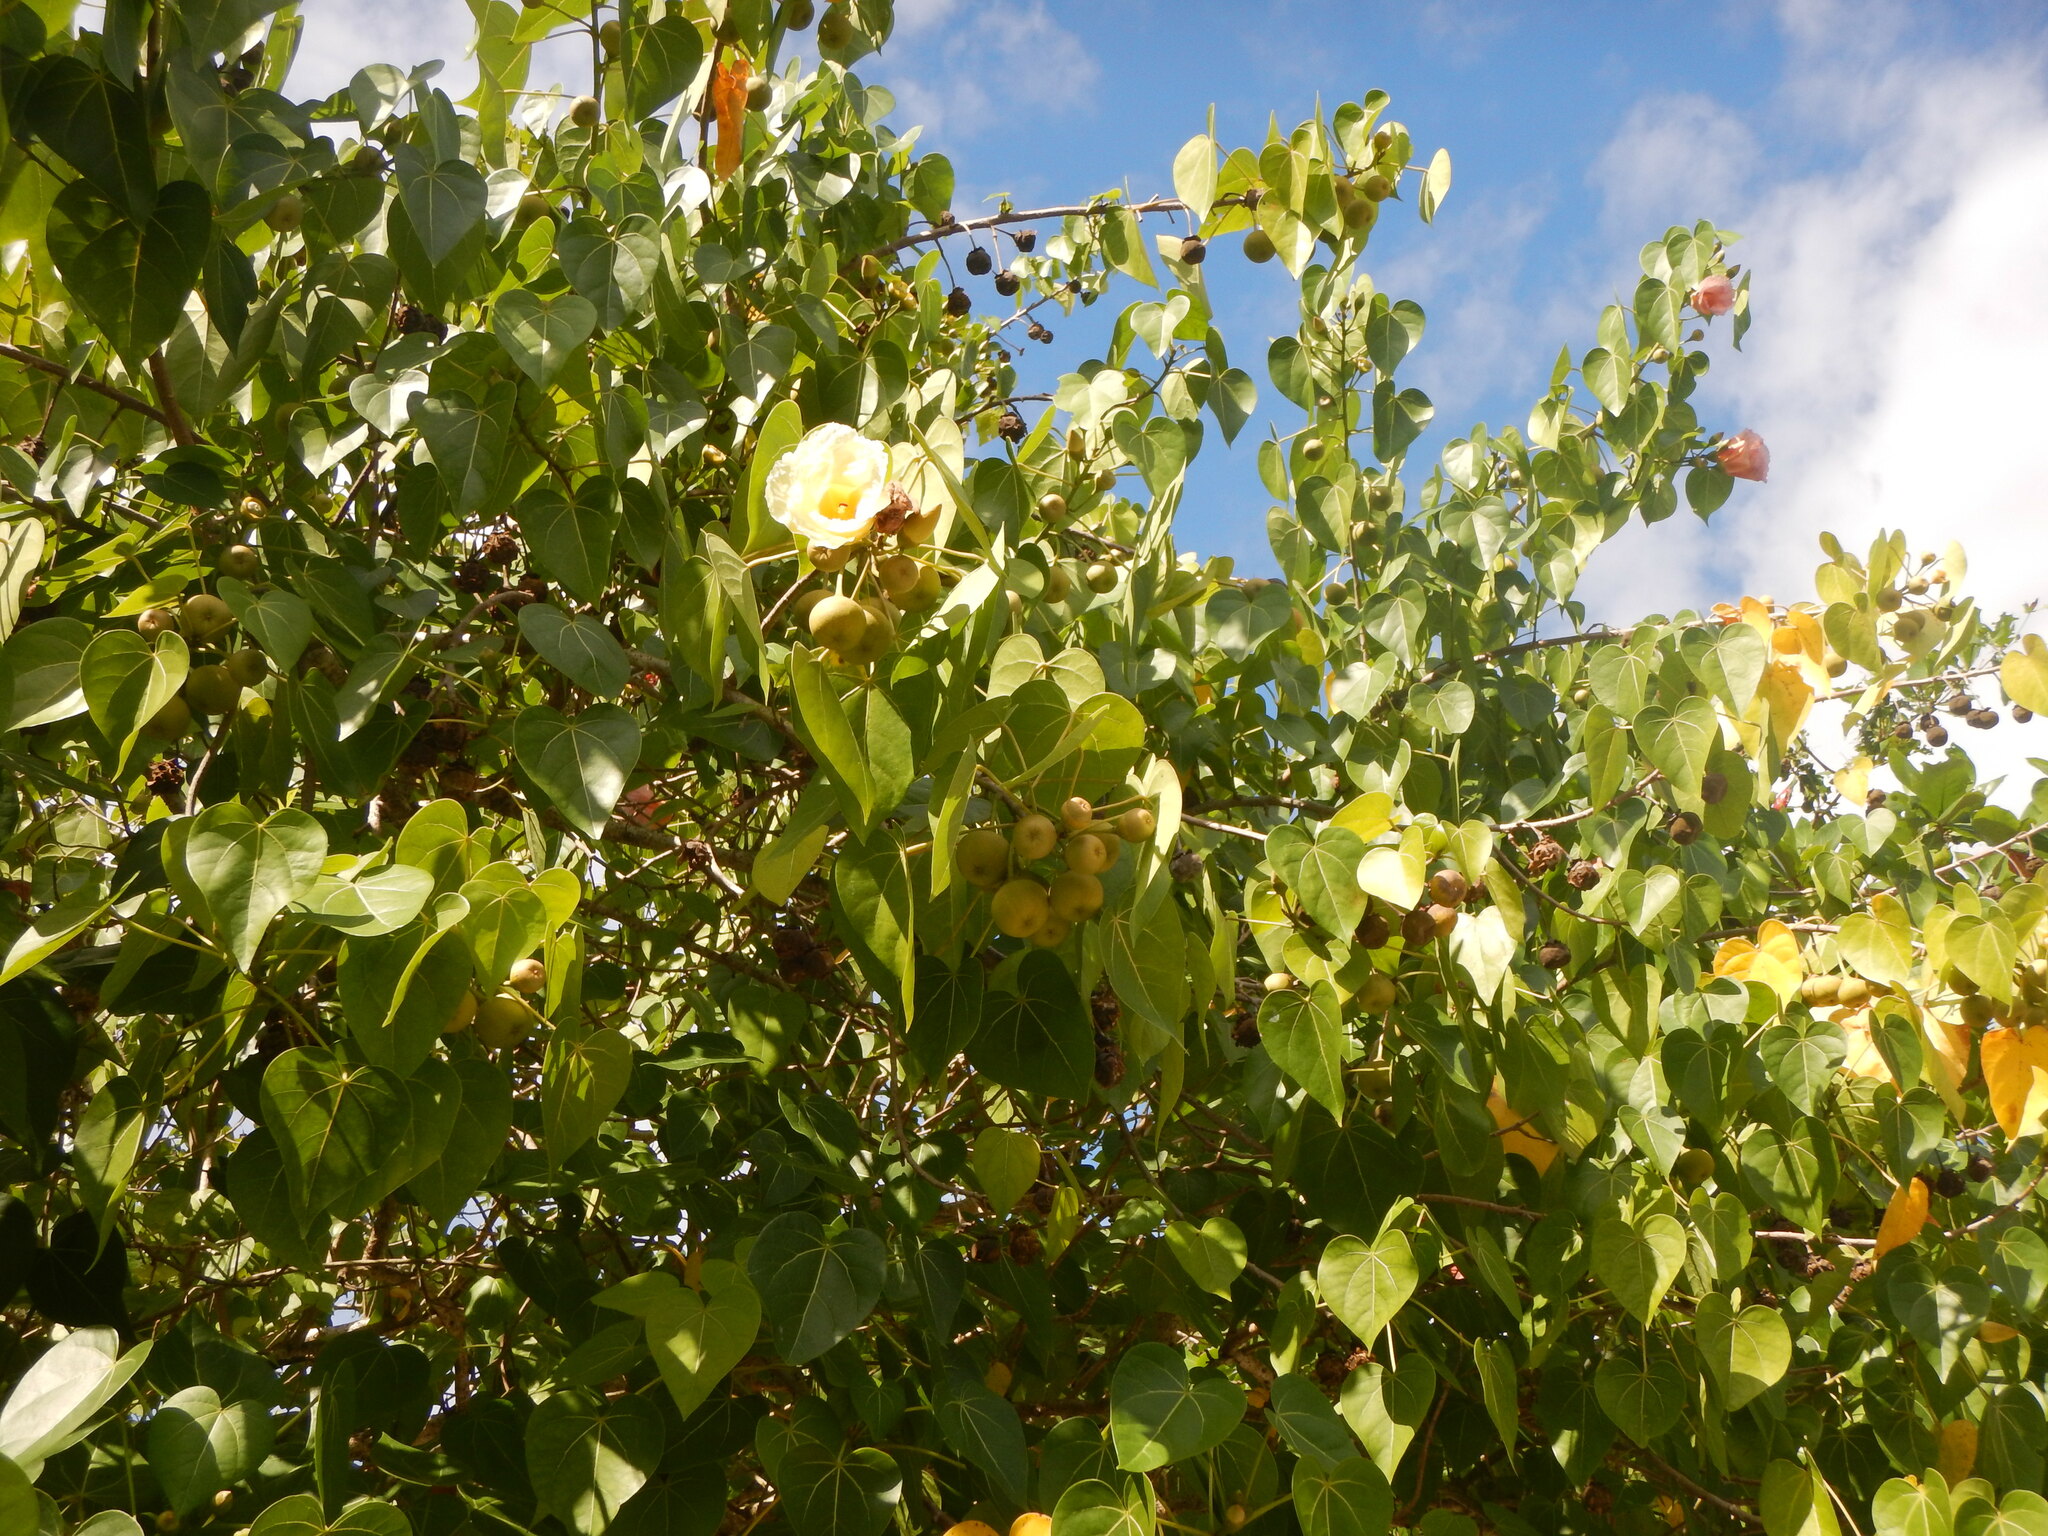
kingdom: Plantae
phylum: Tracheophyta
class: Magnoliopsida
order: Malvales
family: Malvaceae
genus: Thespesia
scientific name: Thespesia populnea
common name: Seaside mahoe
